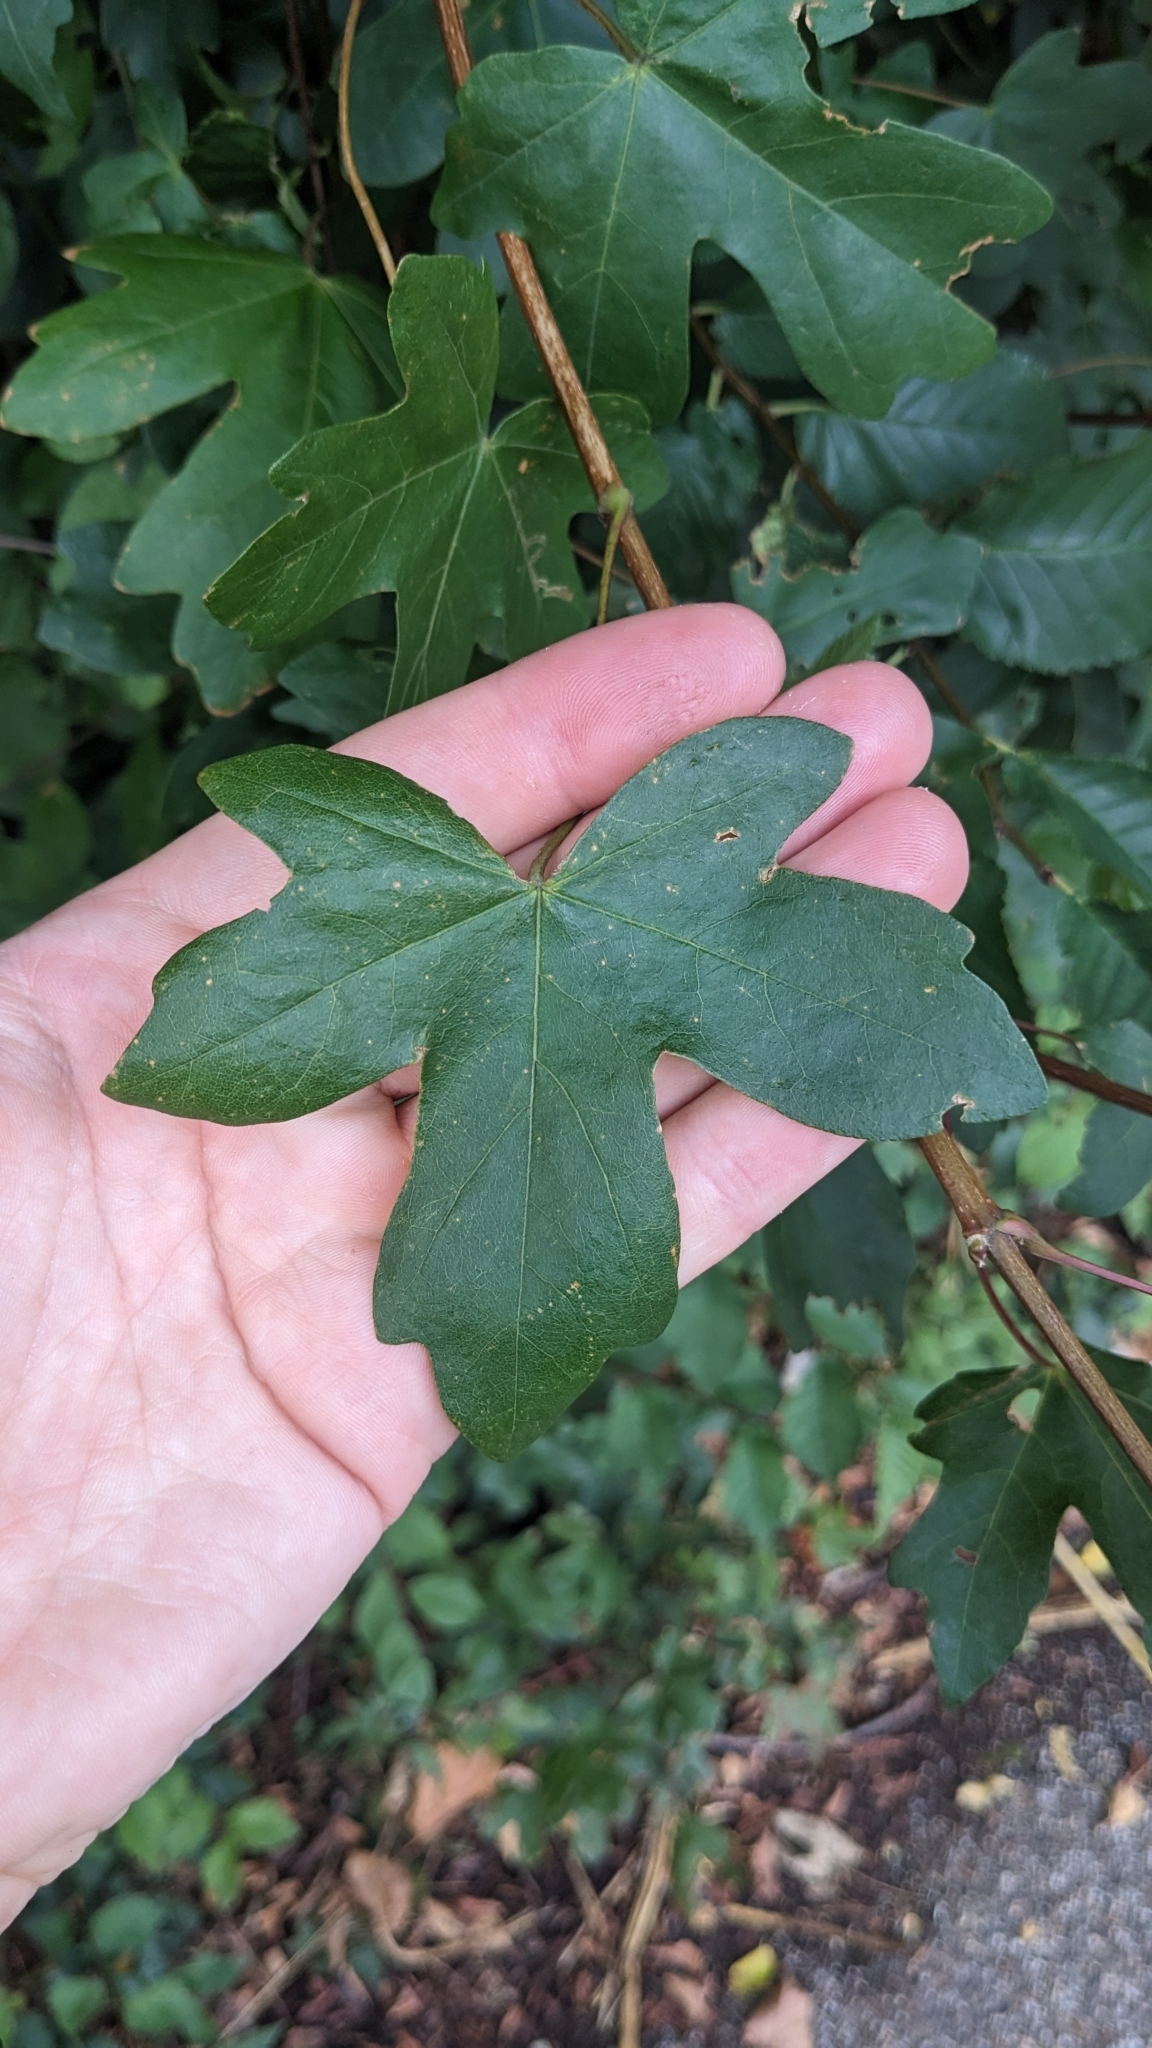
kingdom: Plantae
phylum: Tracheophyta
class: Magnoliopsida
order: Sapindales
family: Sapindaceae
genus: Acer
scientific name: Acer campestre
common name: Field maple
